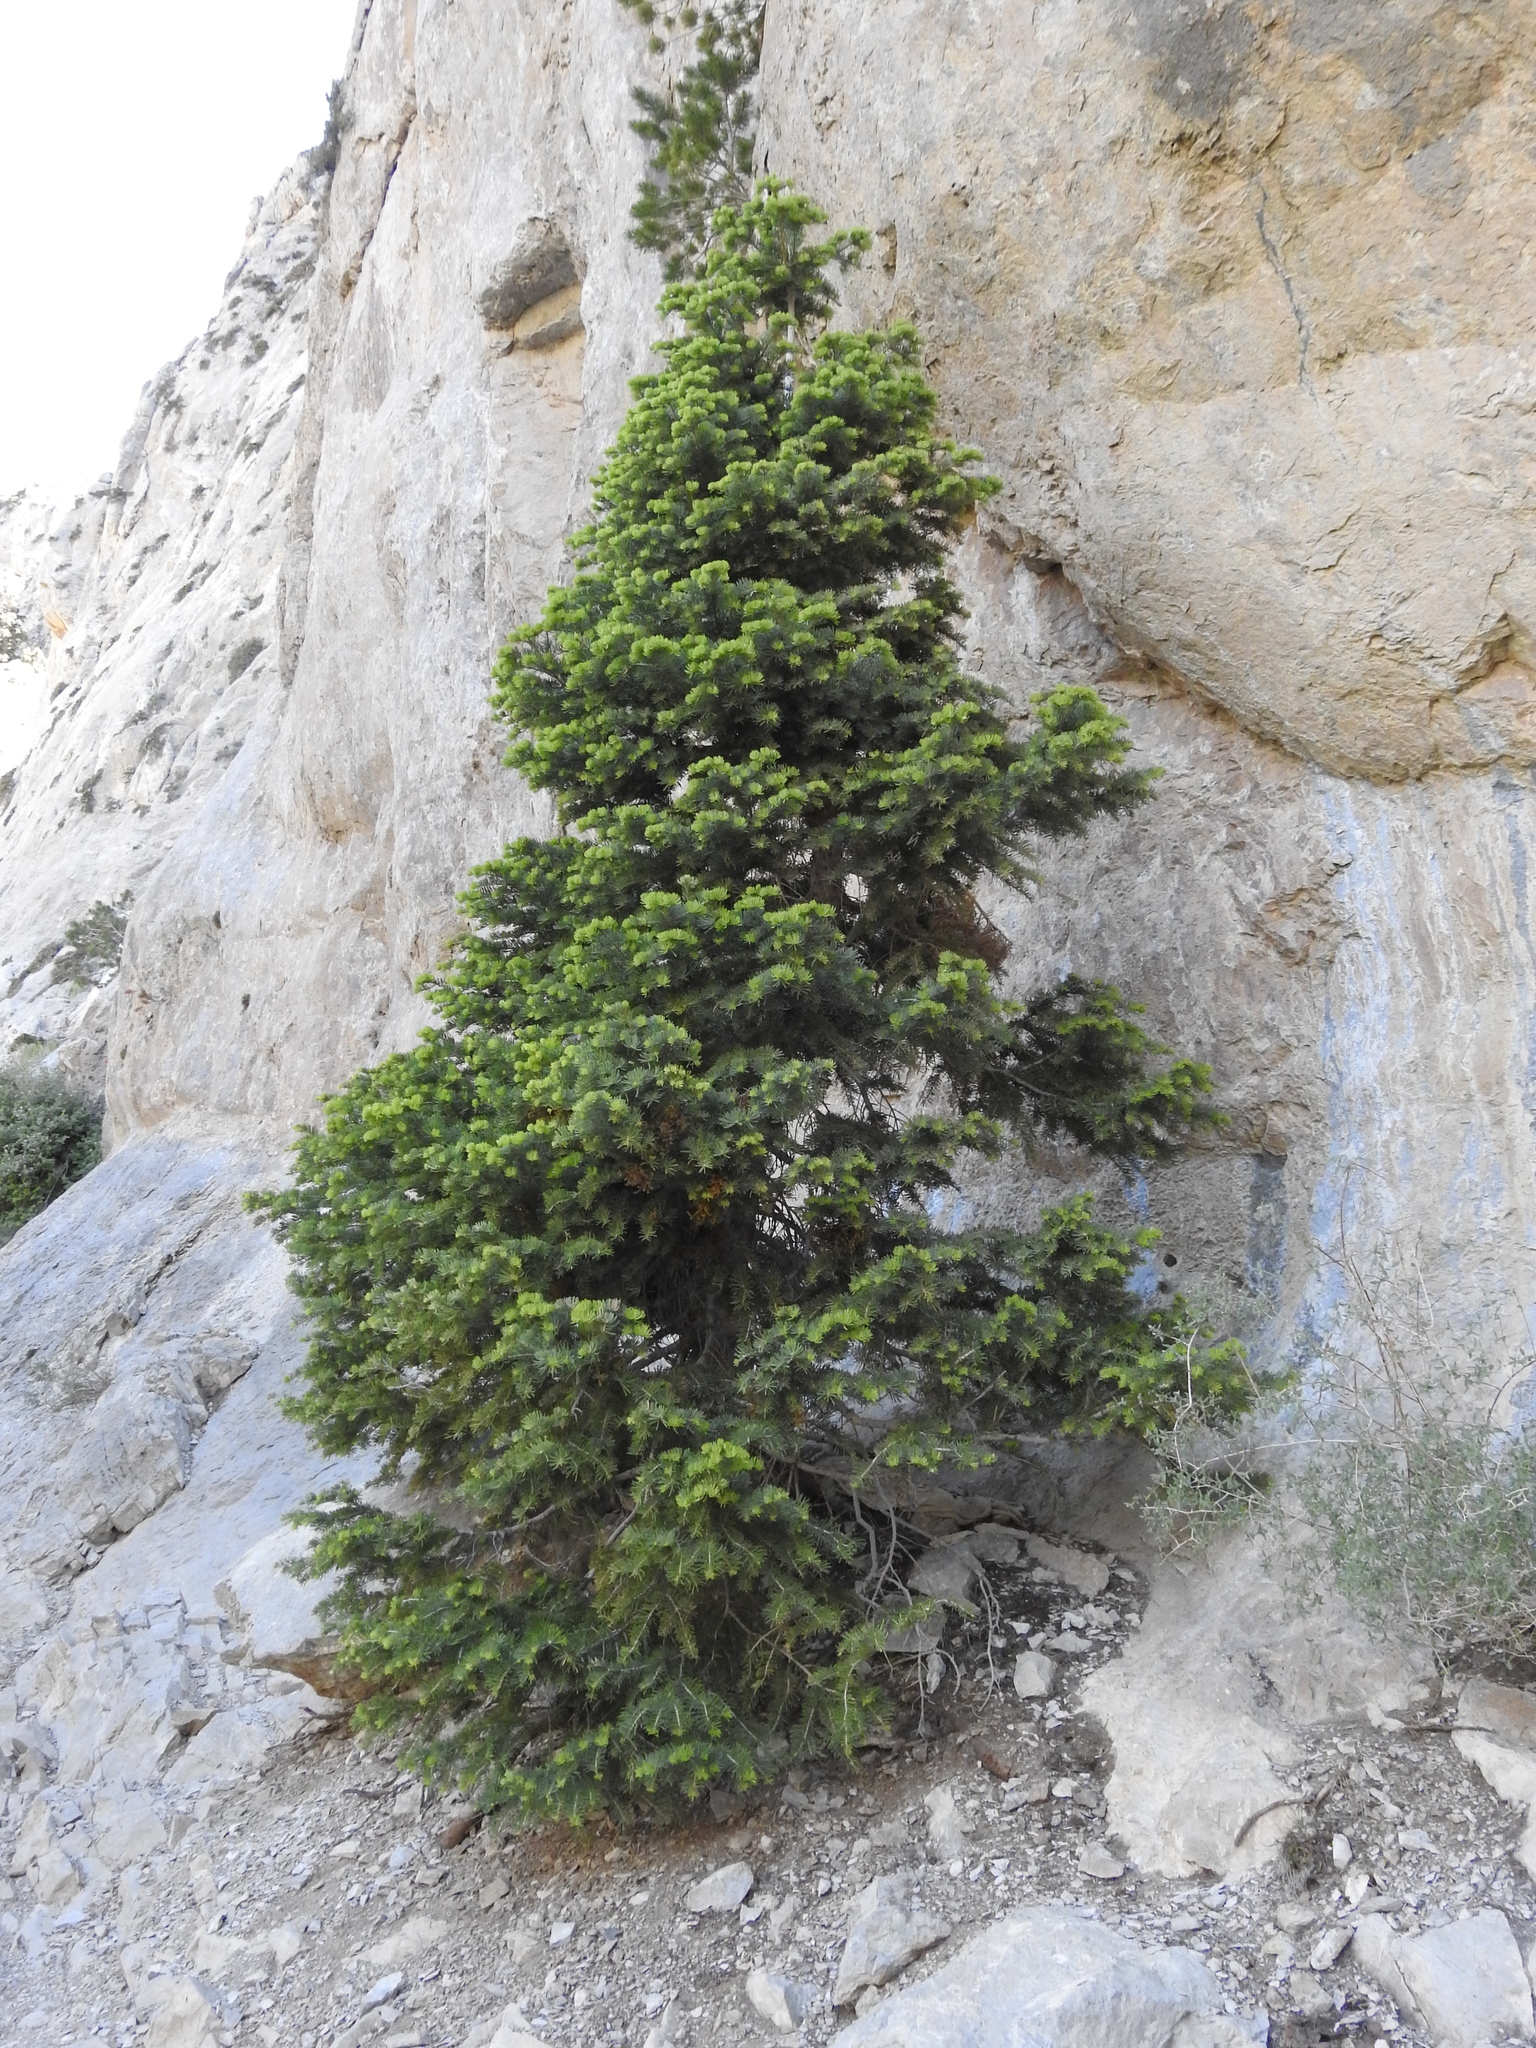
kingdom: Plantae
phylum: Tracheophyta
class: Pinopsida
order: Pinales
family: Pinaceae
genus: Abies
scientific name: Abies concolor
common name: Colorado fir
